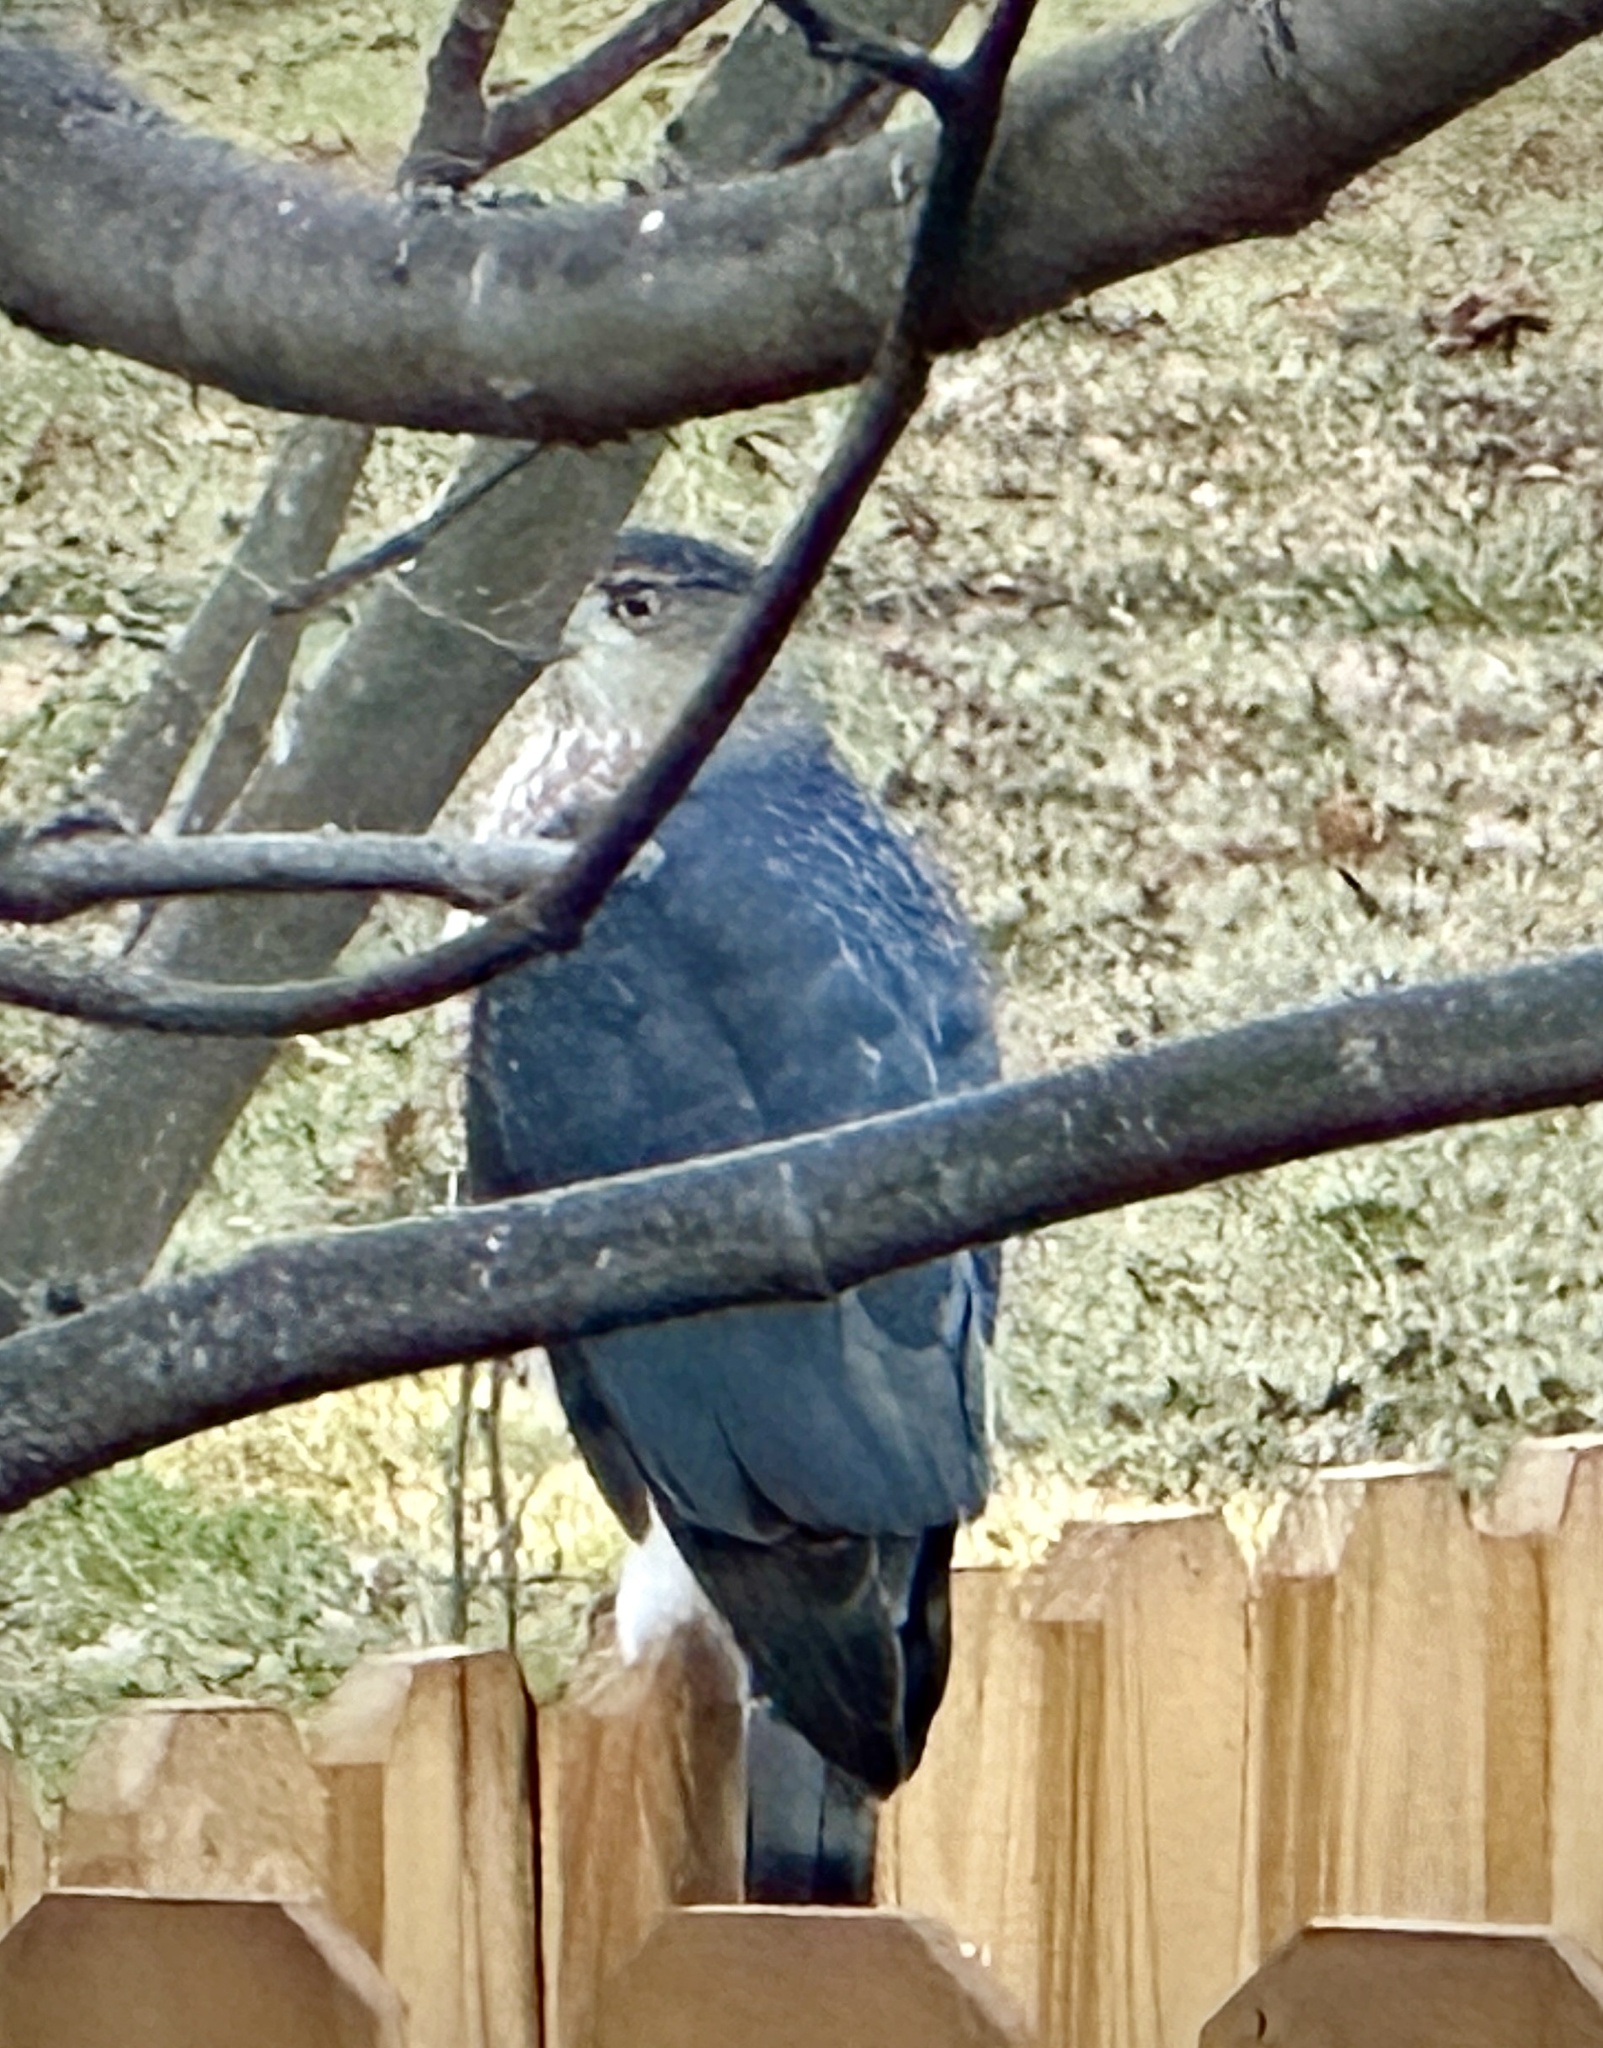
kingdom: Animalia
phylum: Chordata
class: Aves
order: Accipitriformes
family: Accipitridae
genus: Accipiter
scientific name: Accipiter cooperii
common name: Cooper's hawk
